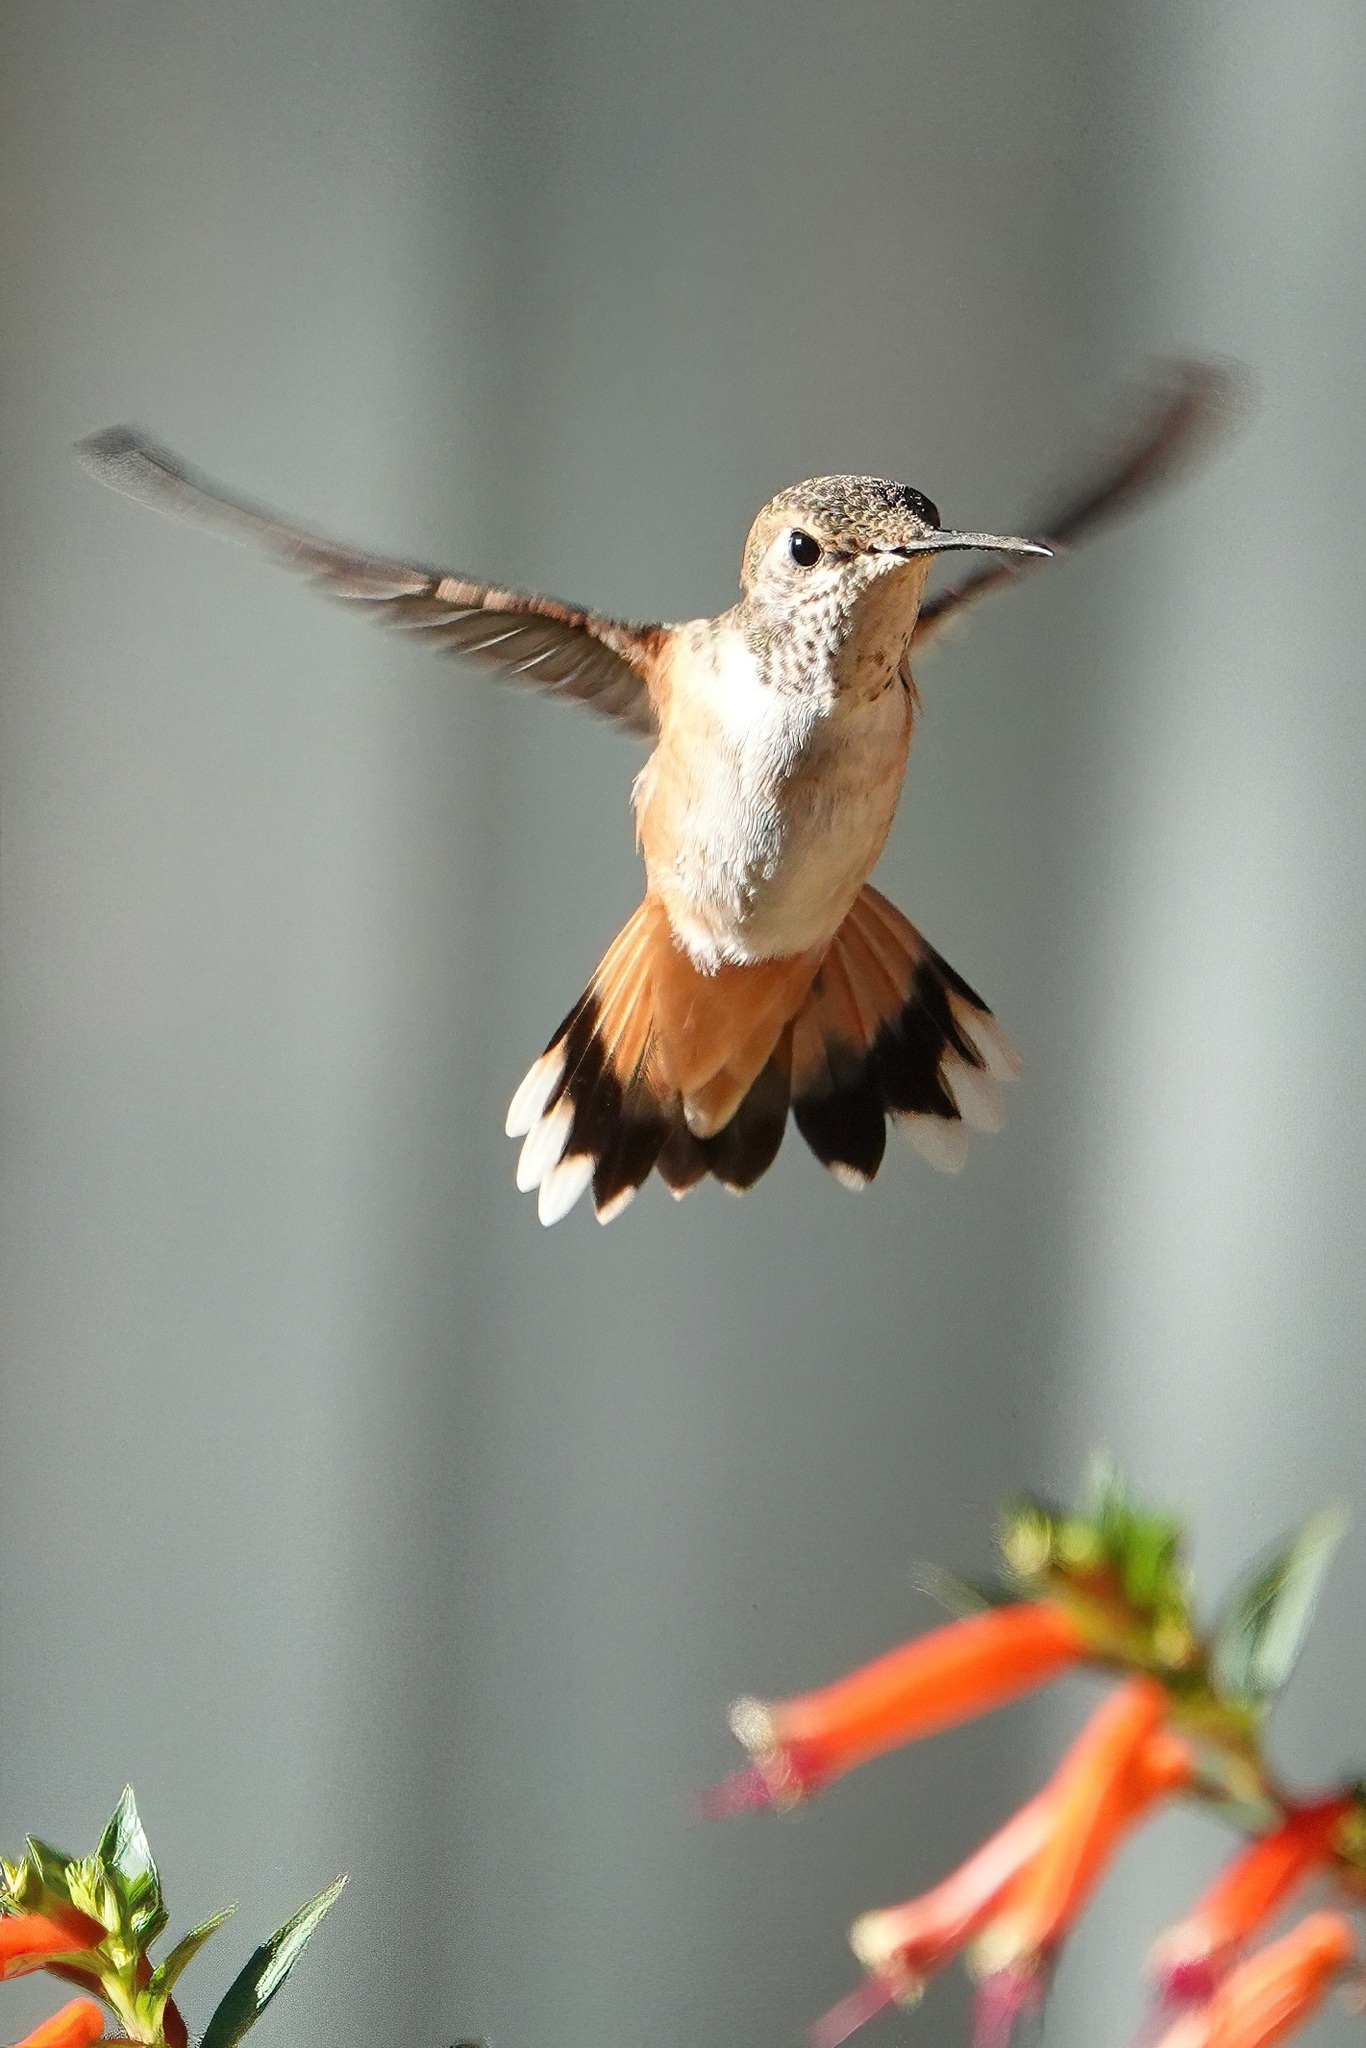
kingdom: Animalia
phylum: Chordata
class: Aves
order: Apodiformes
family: Trochilidae
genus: Selasphorus
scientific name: Selasphorus rufus
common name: Rufous hummingbird
